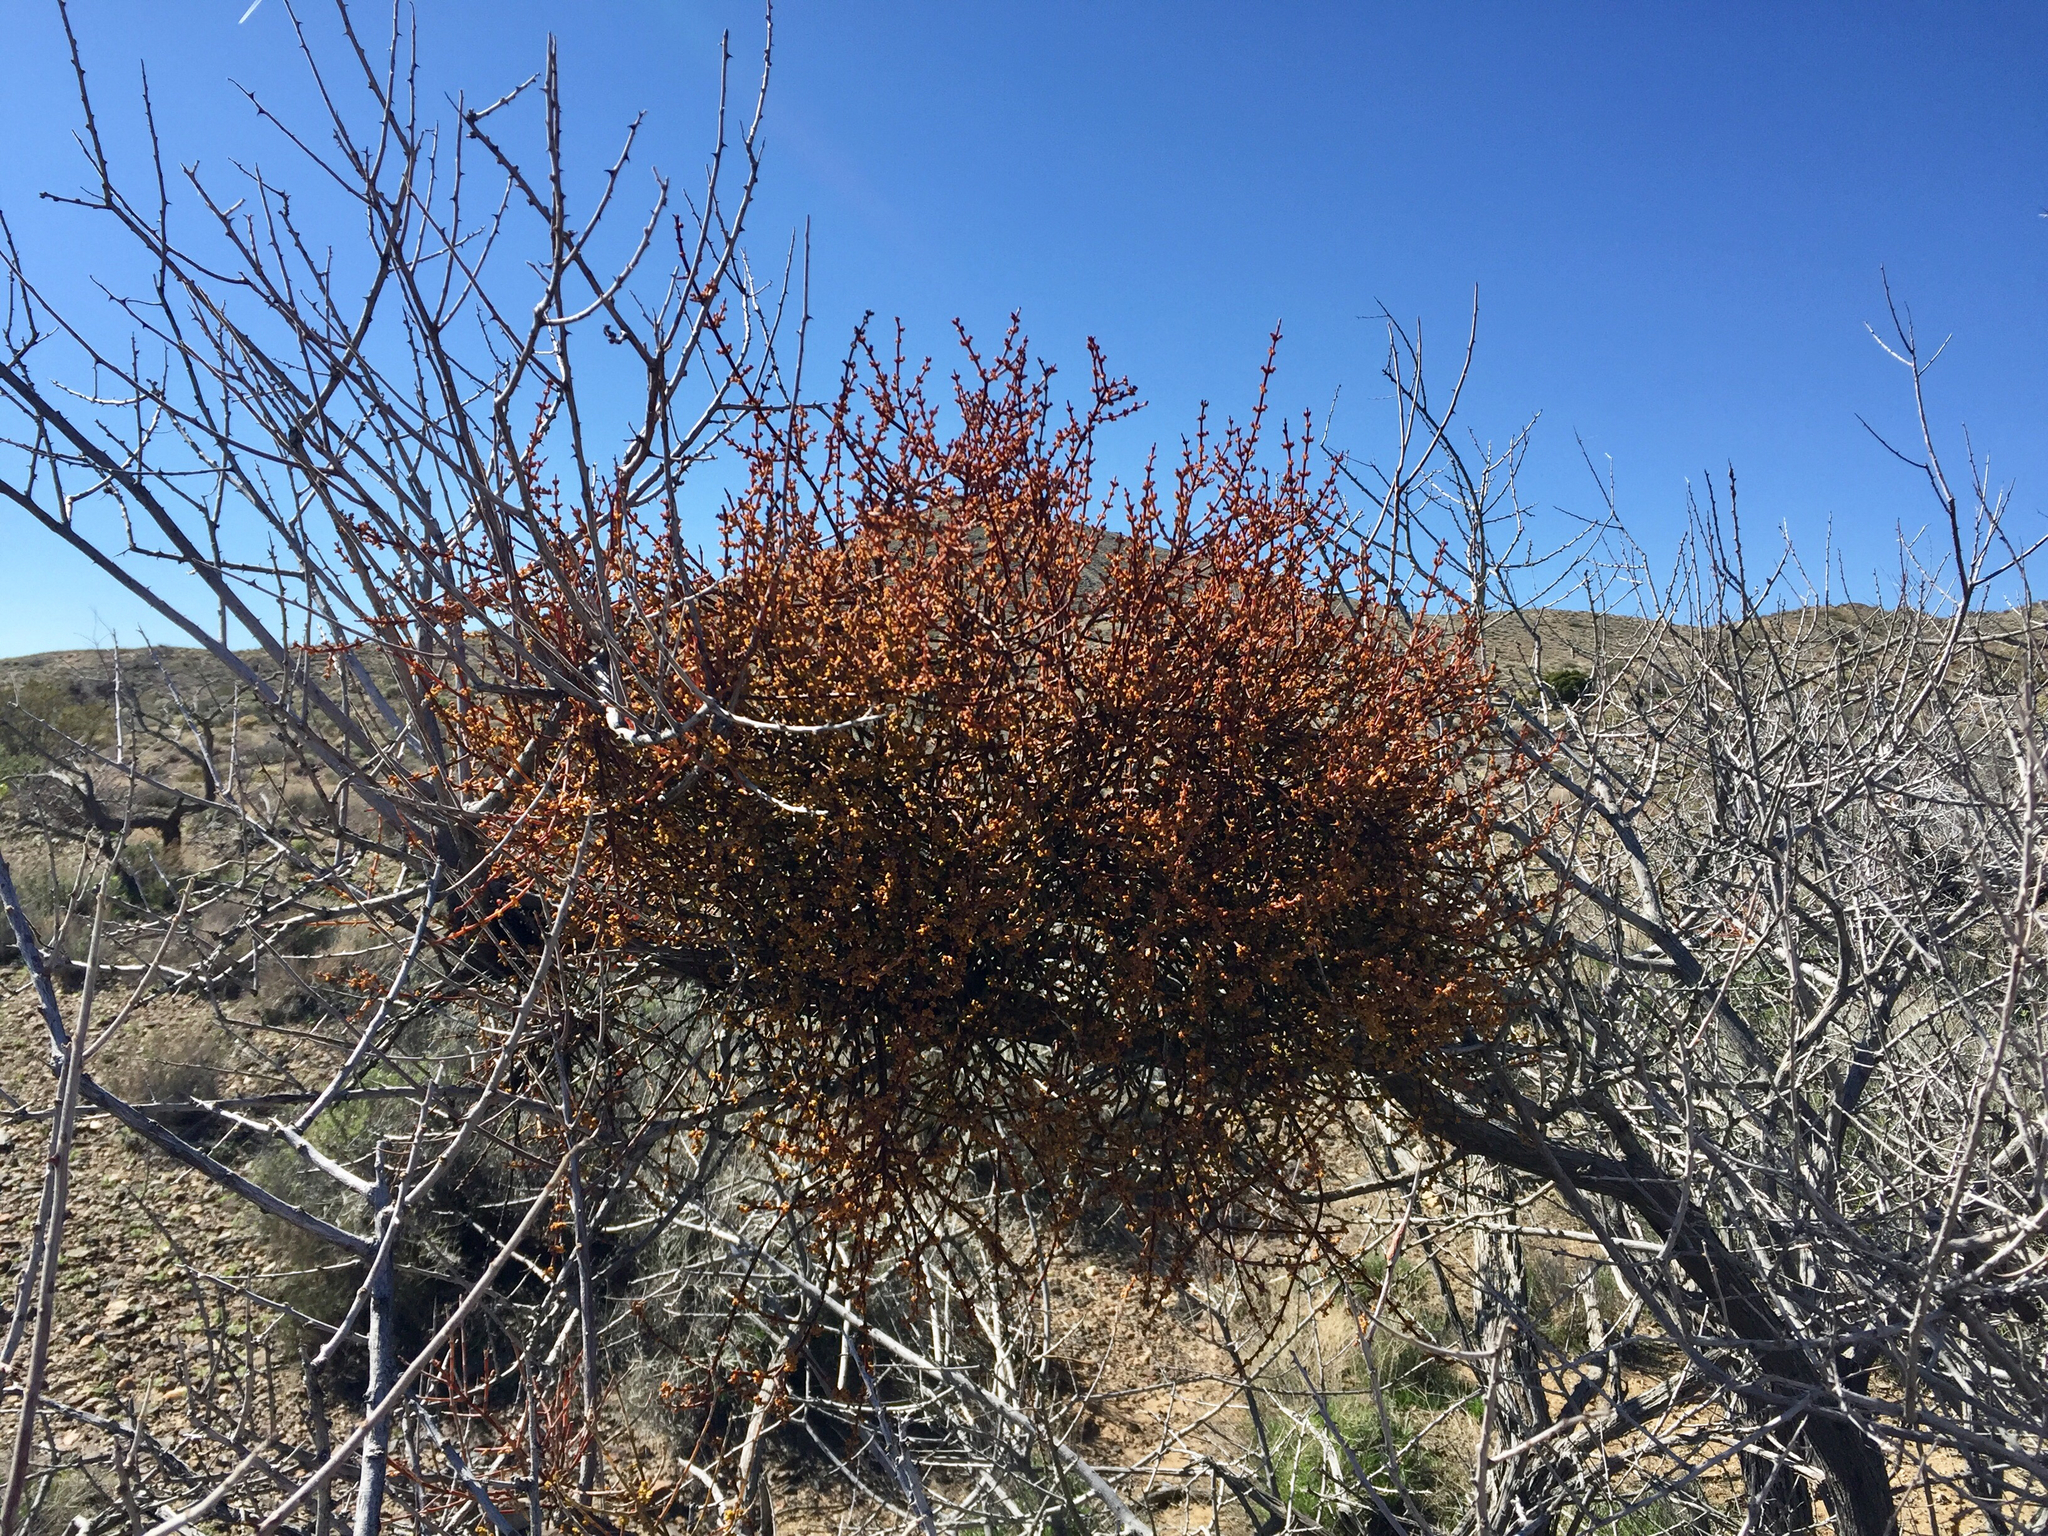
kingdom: Plantae
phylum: Tracheophyta
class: Magnoliopsida
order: Santalales
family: Viscaceae
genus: Phoradendron
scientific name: Phoradendron californicum
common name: Acacia mistletoe
